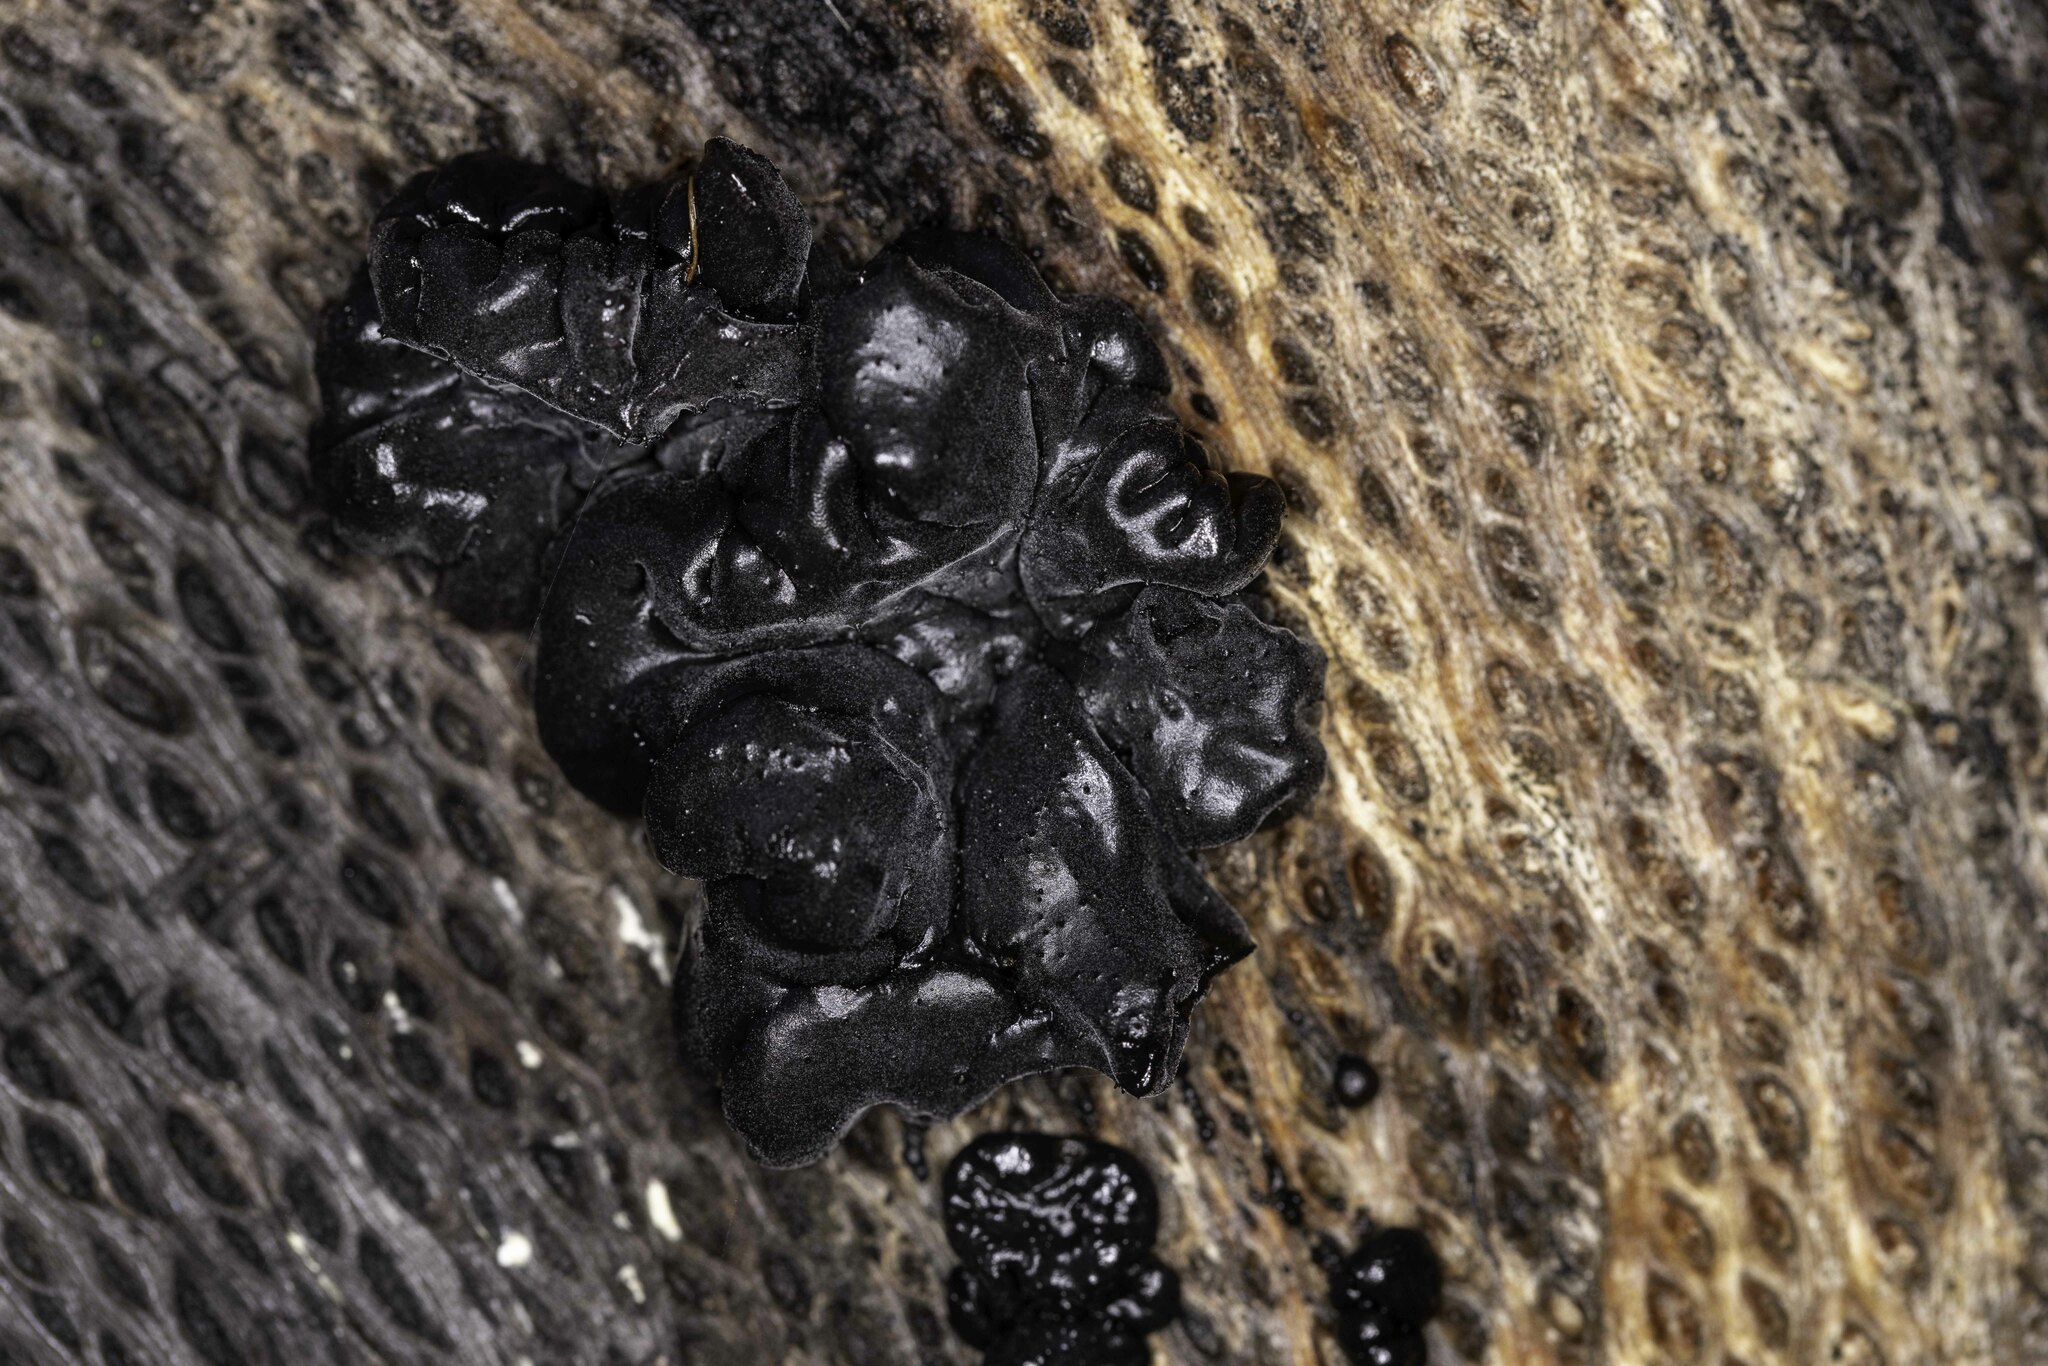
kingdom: Fungi
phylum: Basidiomycota
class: Agaricomycetes
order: Auriculariales
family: Auriculariaceae
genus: Exidia
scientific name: Exidia glandulosa
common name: Witches' butter
